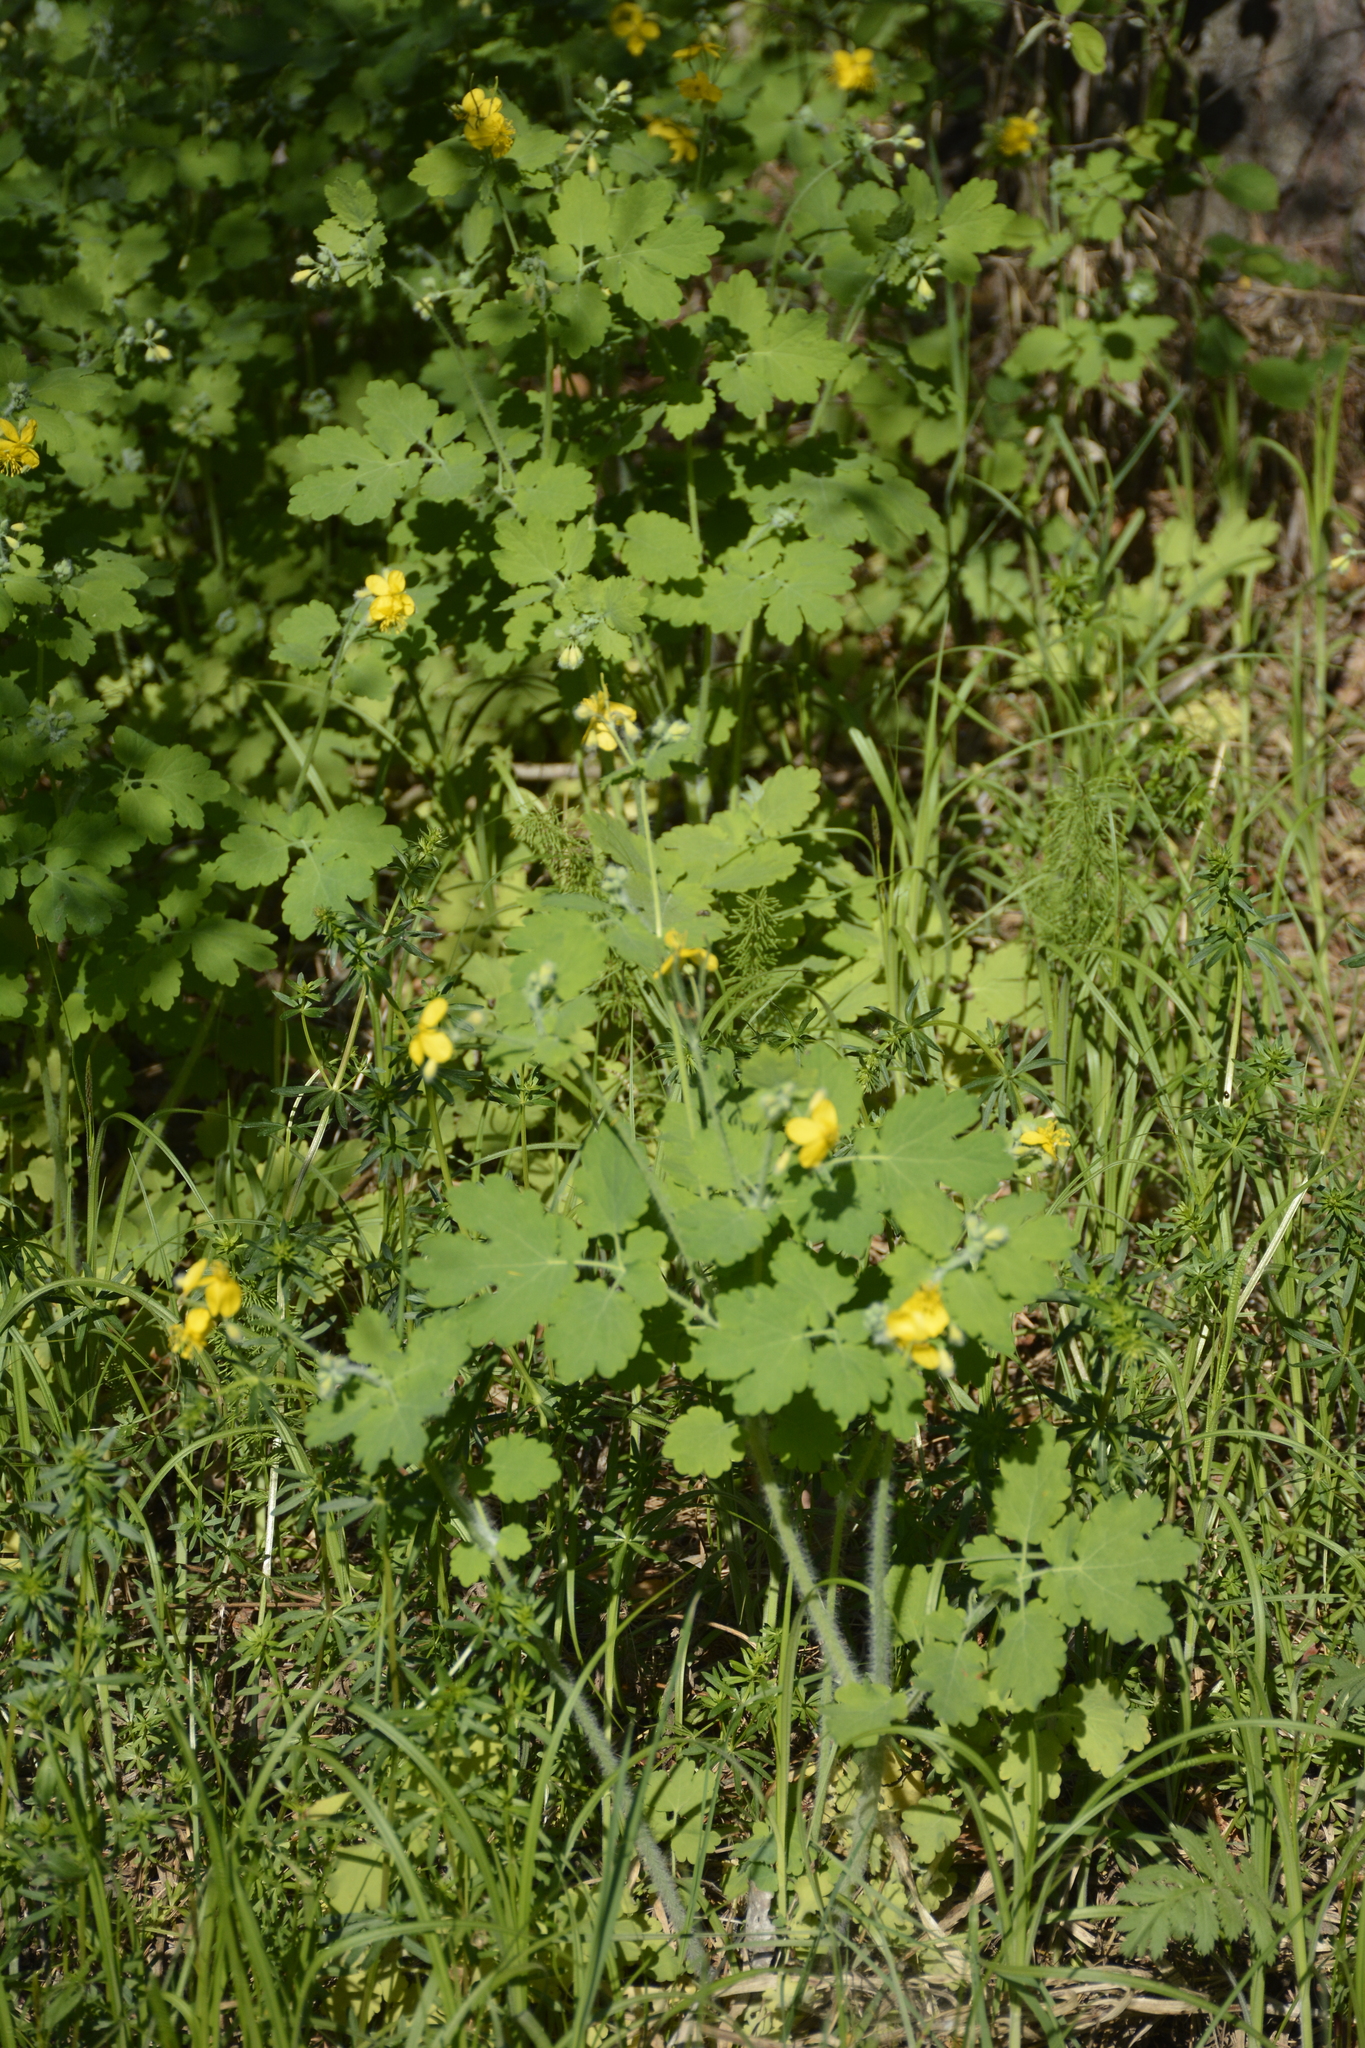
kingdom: Plantae
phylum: Tracheophyta
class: Magnoliopsida
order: Ranunculales
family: Papaveraceae
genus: Chelidonium
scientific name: Chelidonium majus
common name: Greater celandine
